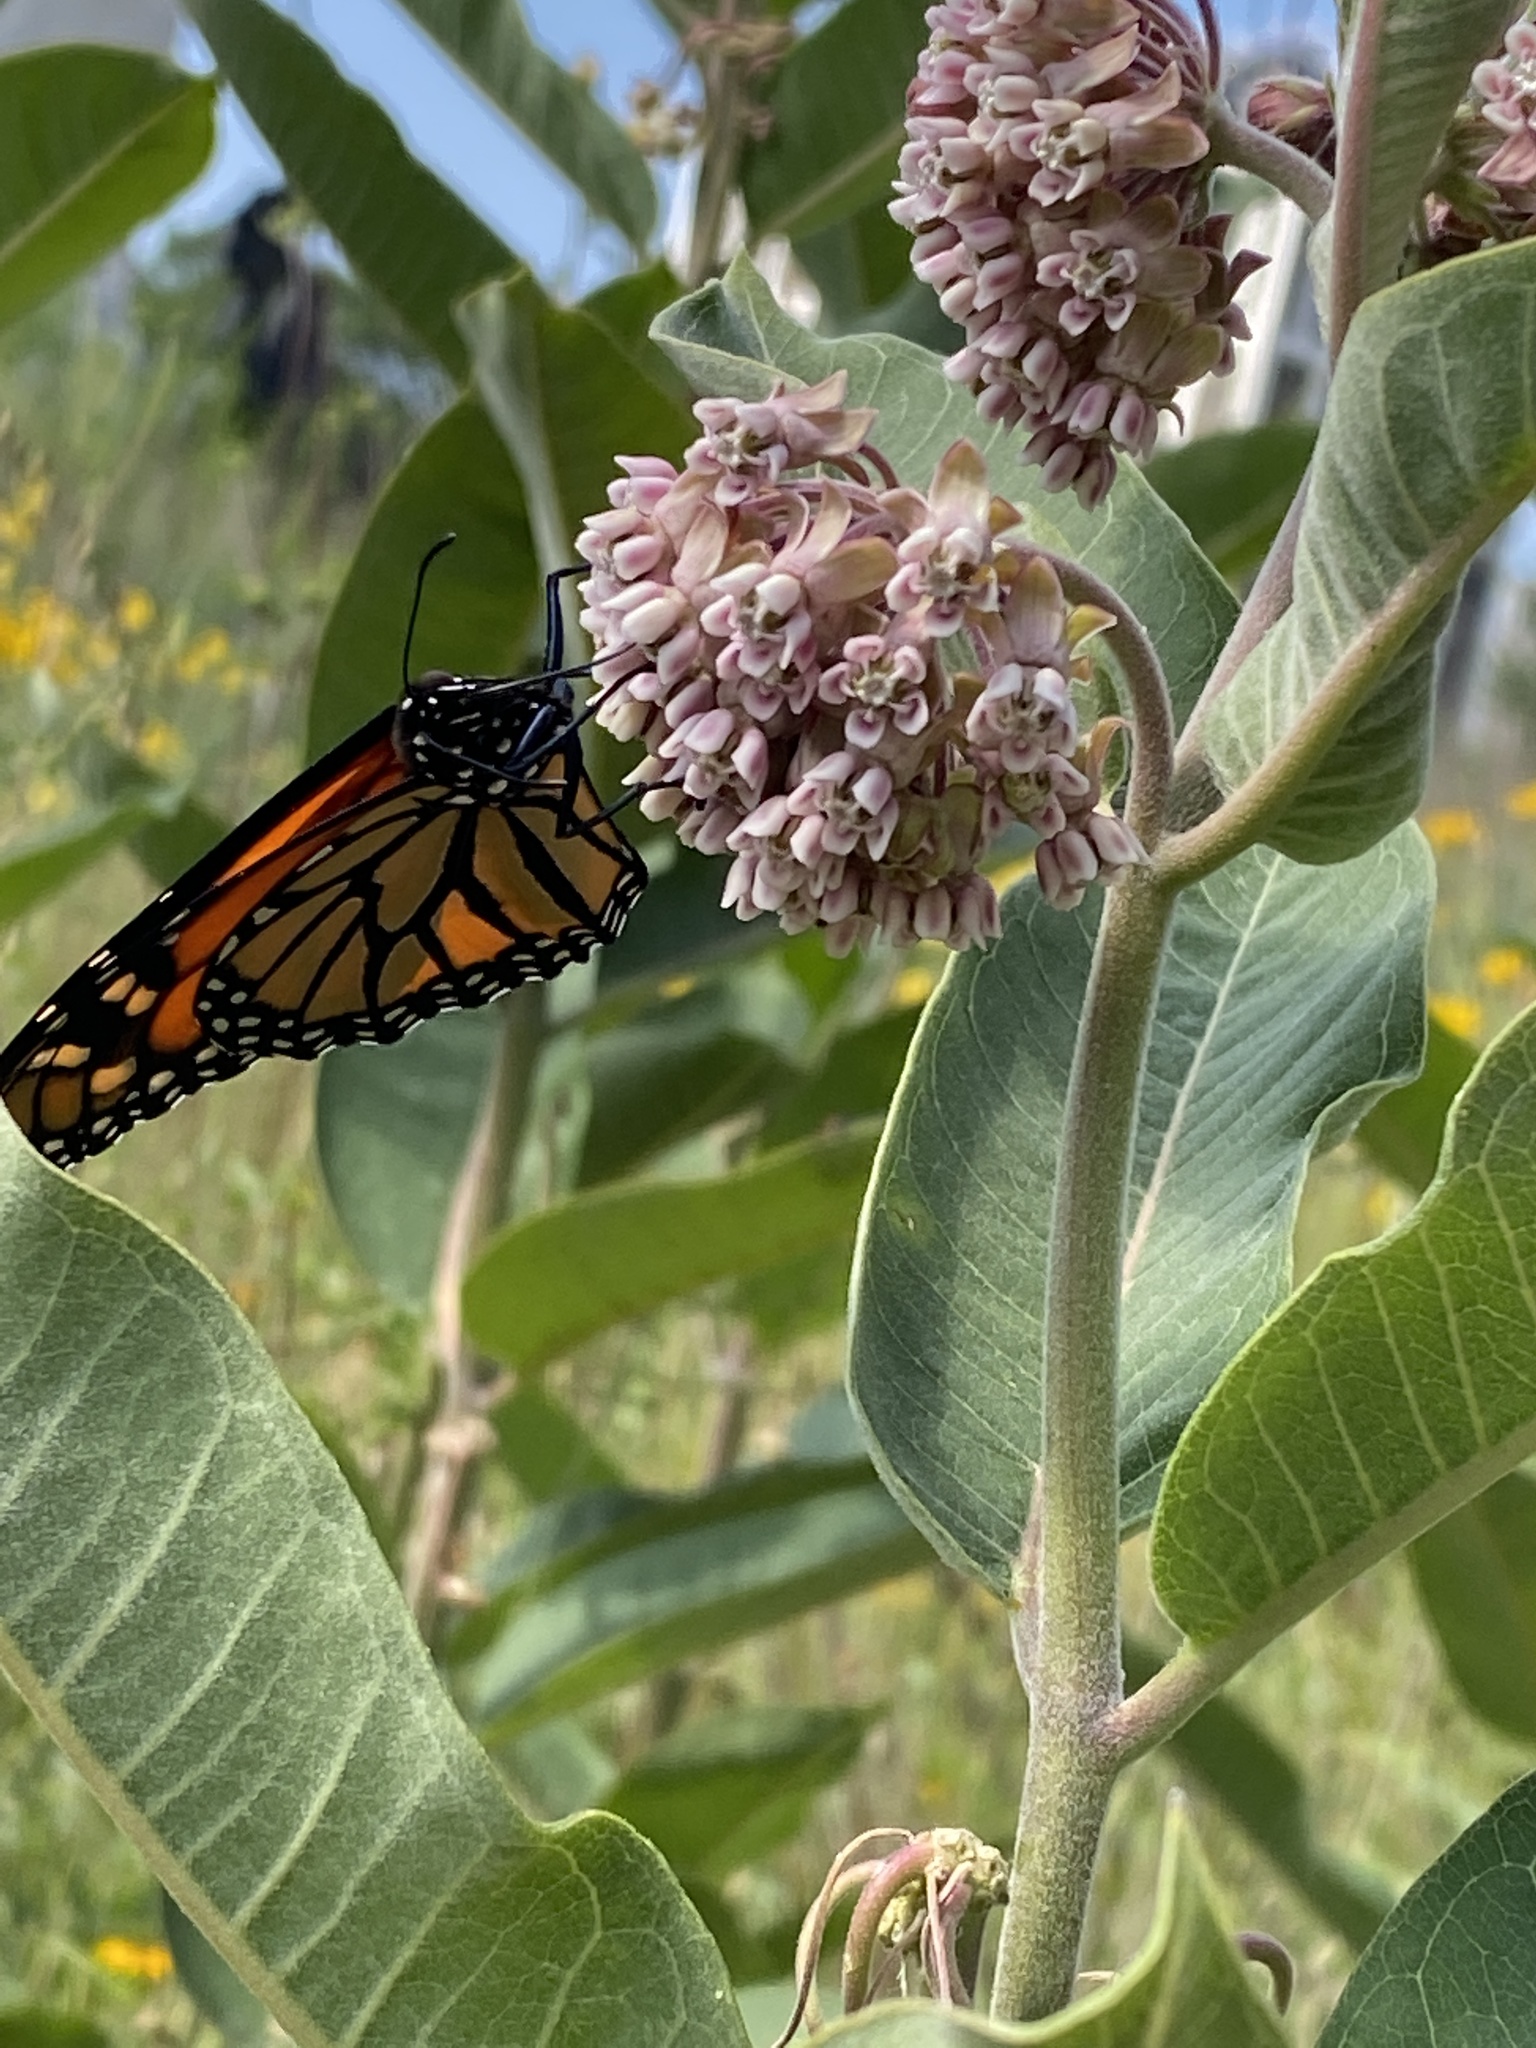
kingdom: Animalia
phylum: Arthropoda
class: Insecta
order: Lepidoptera
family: Nymphalidae
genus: Danaus
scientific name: Danaus plexippus
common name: Monarch
